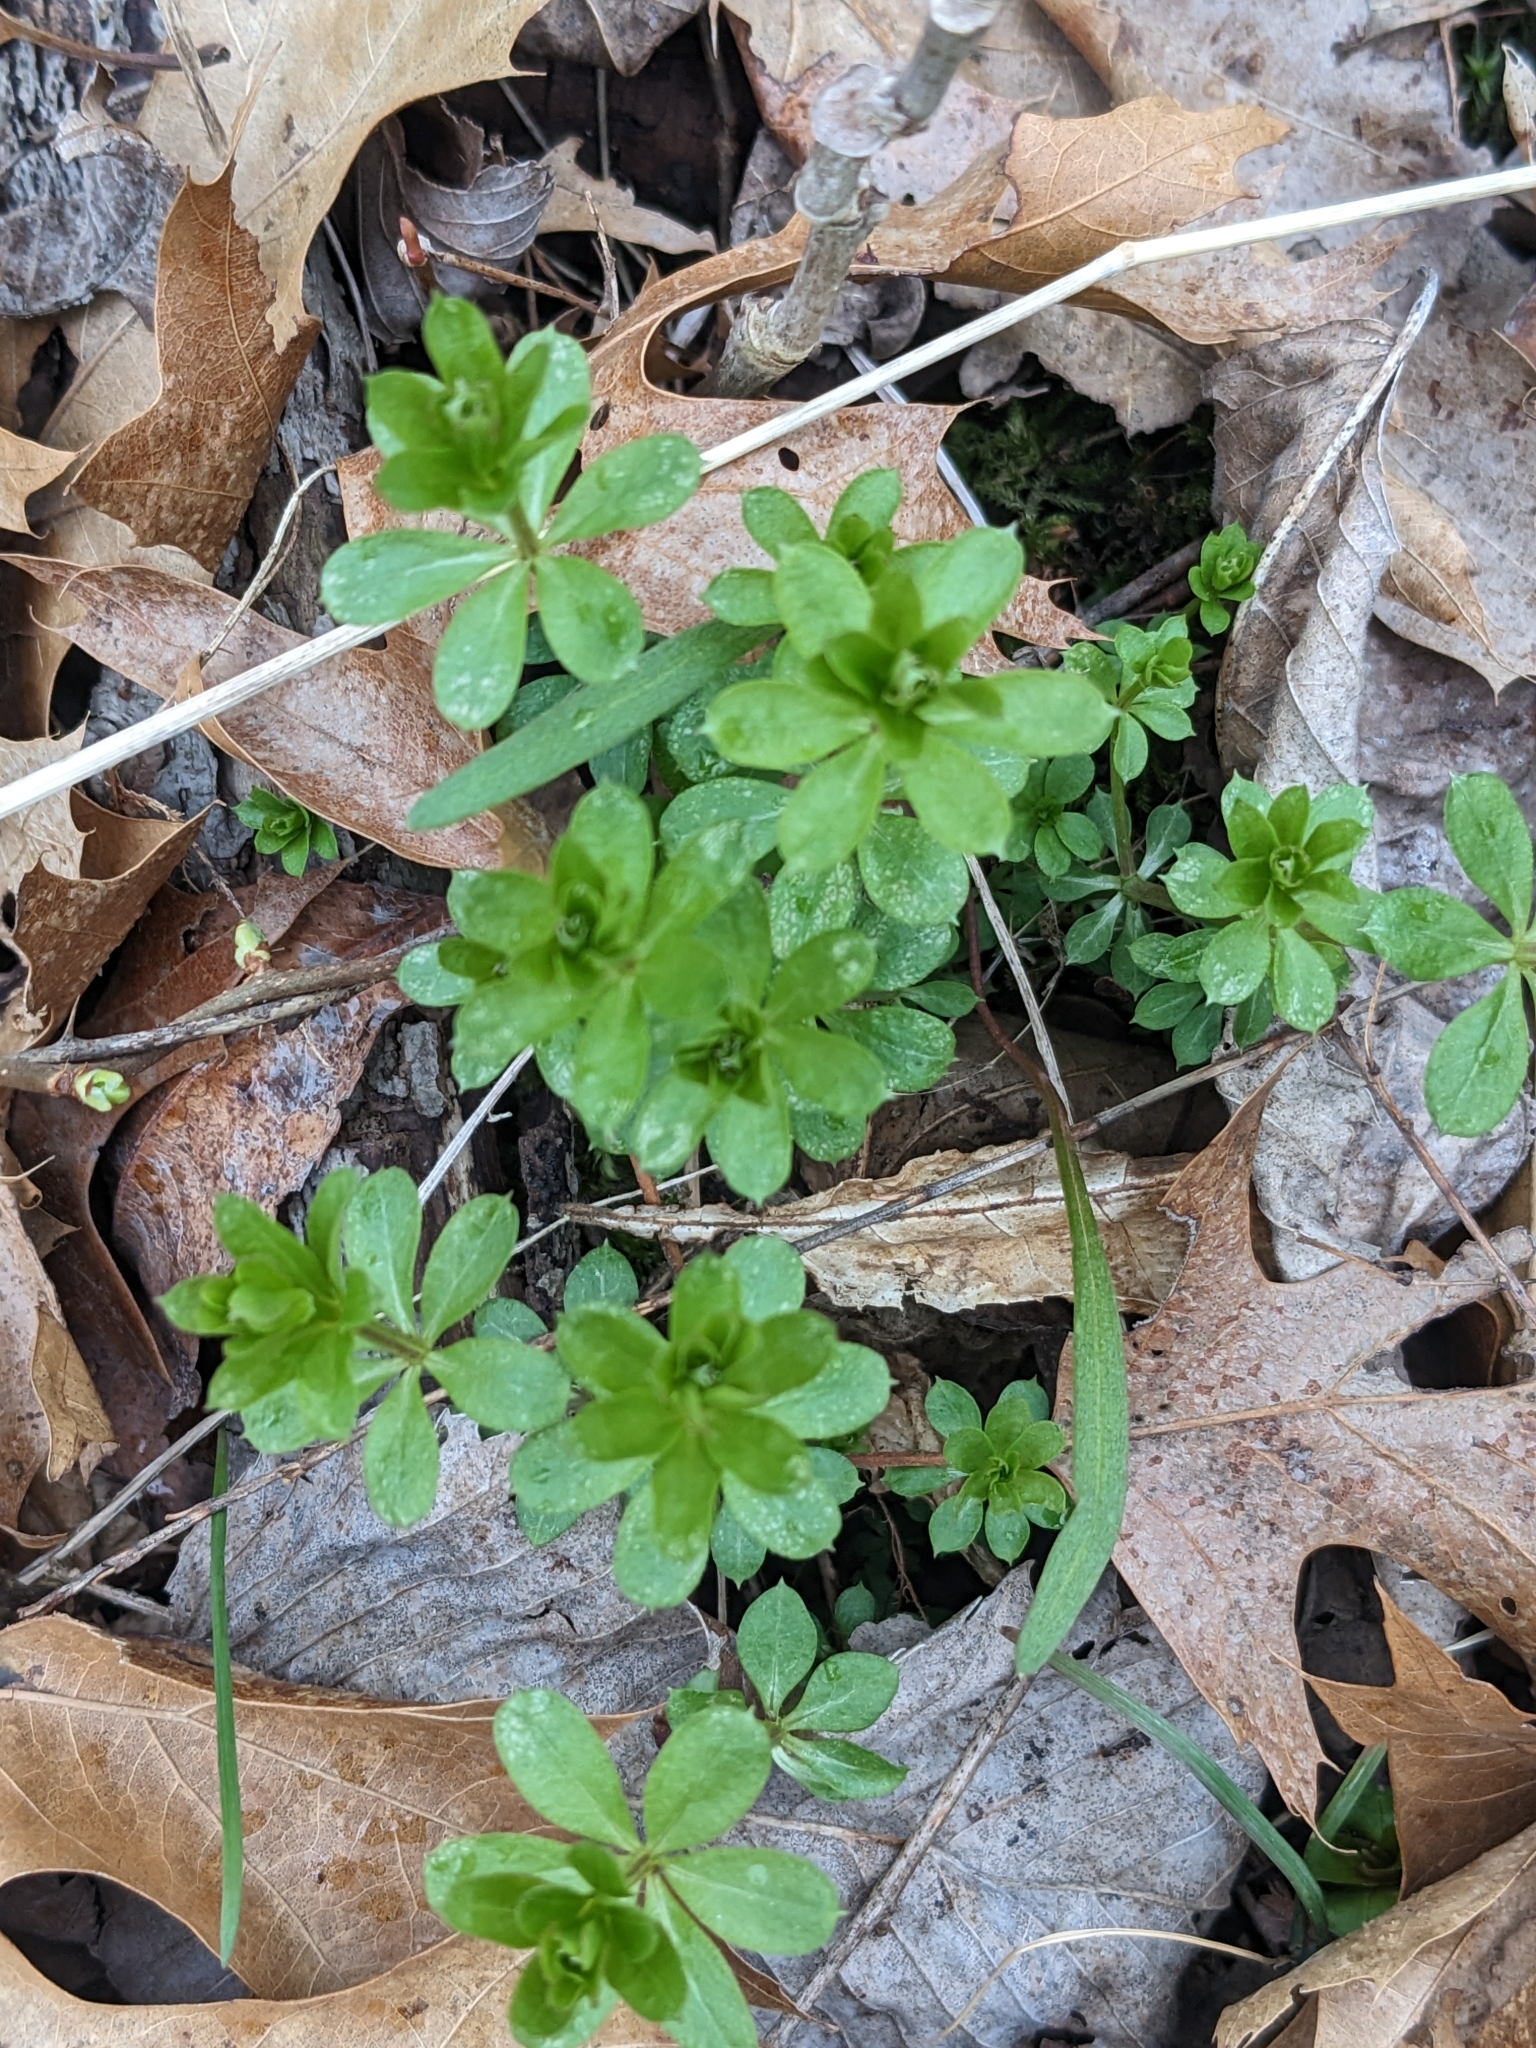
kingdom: Plantae
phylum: Tracheophyta
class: Magnoliopsida
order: Gentianales
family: Rubiaceae
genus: Galium
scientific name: Galium triflorum
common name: Fragrant bedstraw
